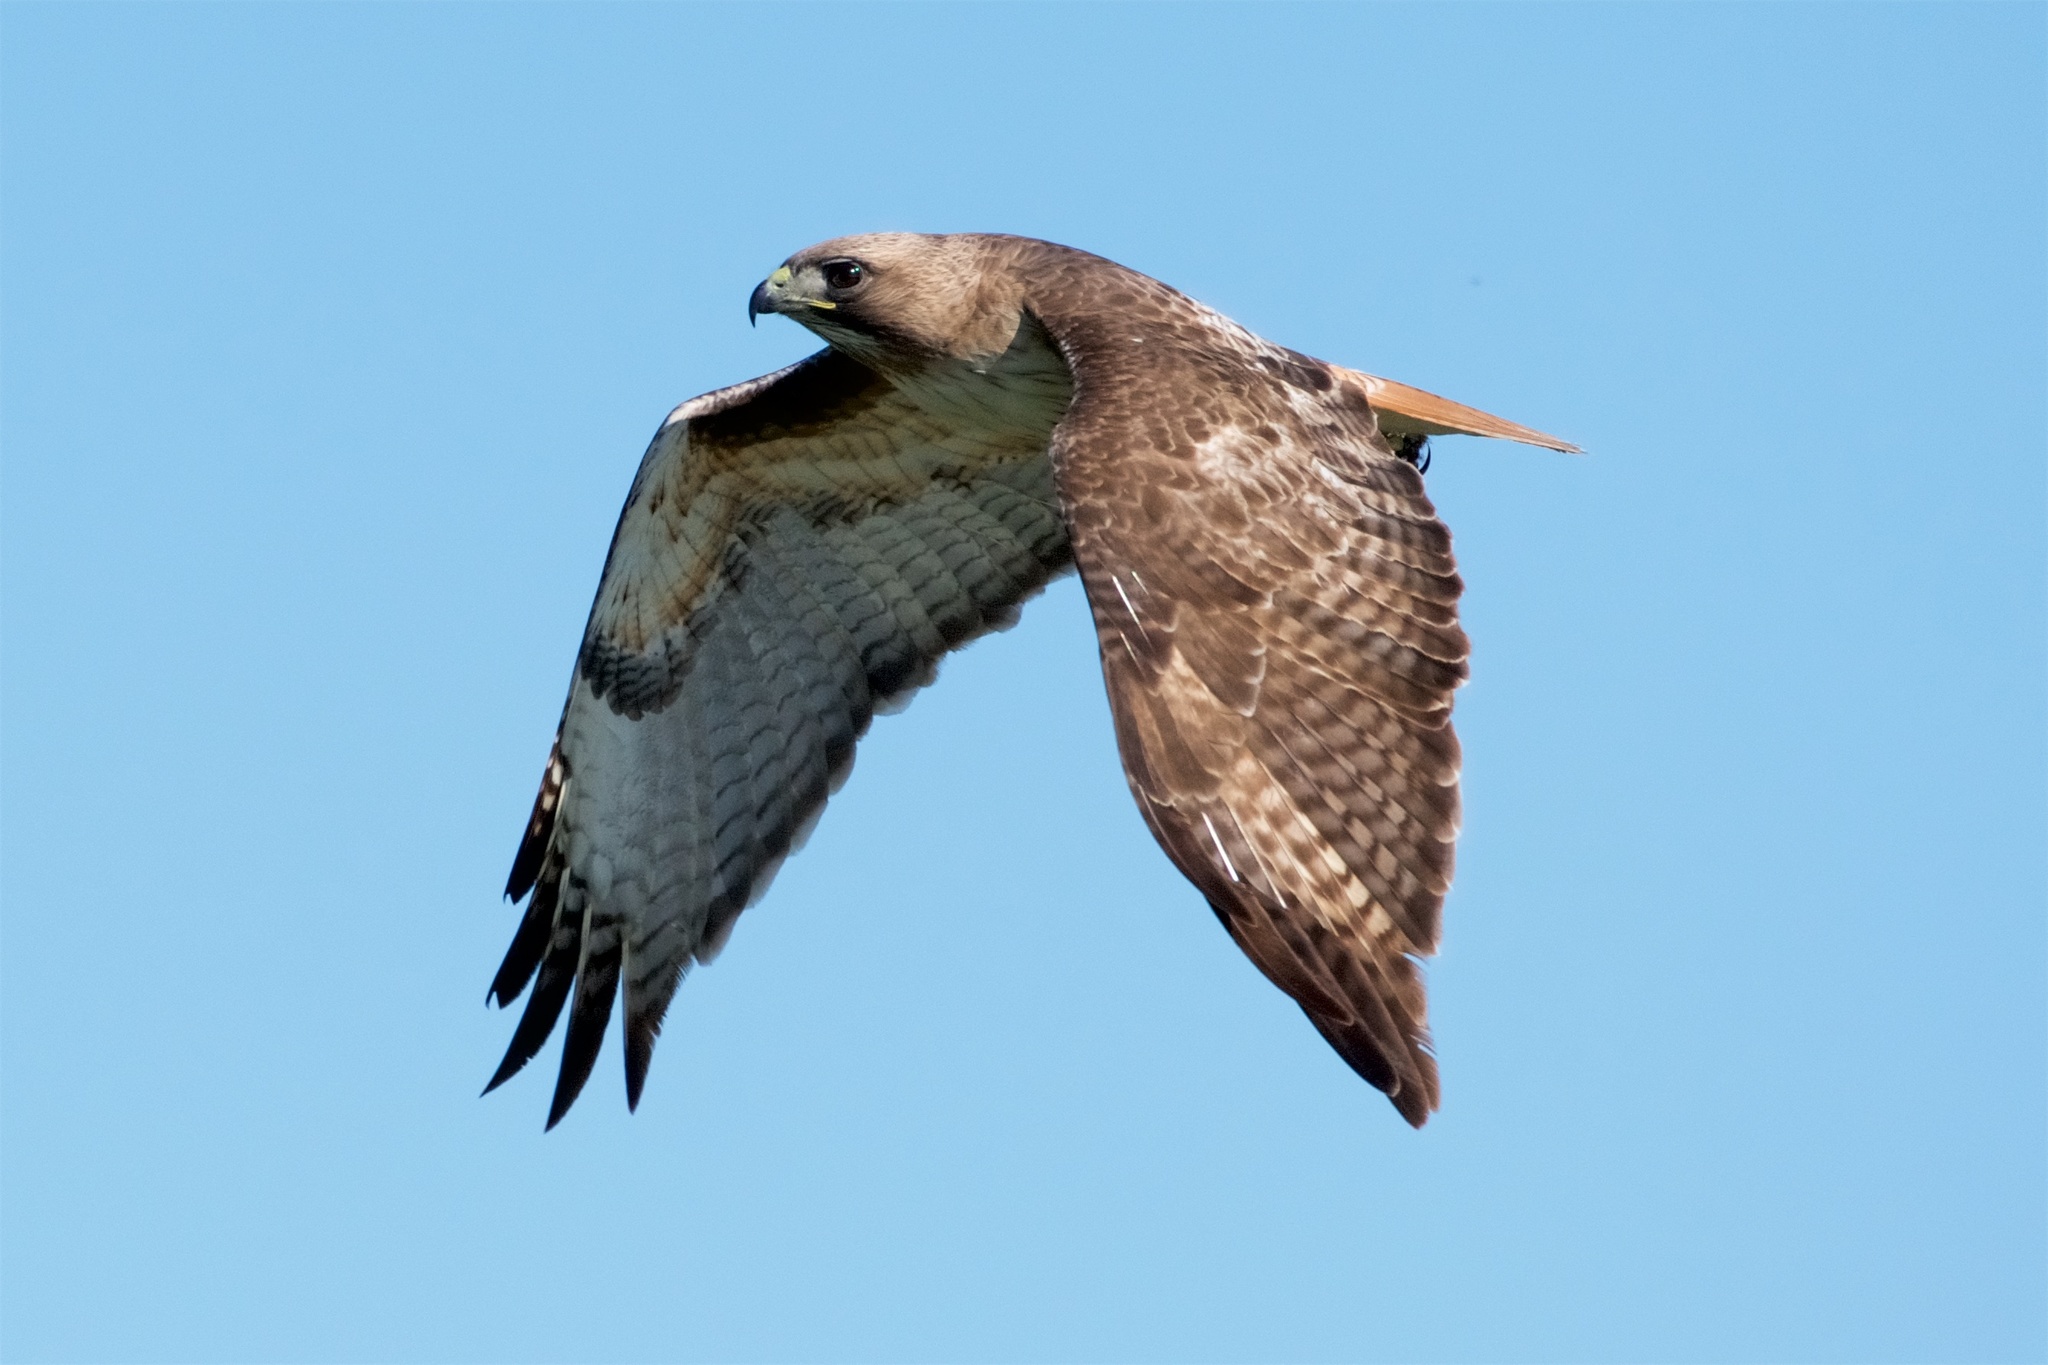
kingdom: Animalia
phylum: Chordata
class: Aves
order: Accipitriformes
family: Accipitridae
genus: Buteo
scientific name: Buteo jamaicensis
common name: Red-tailed hawk
